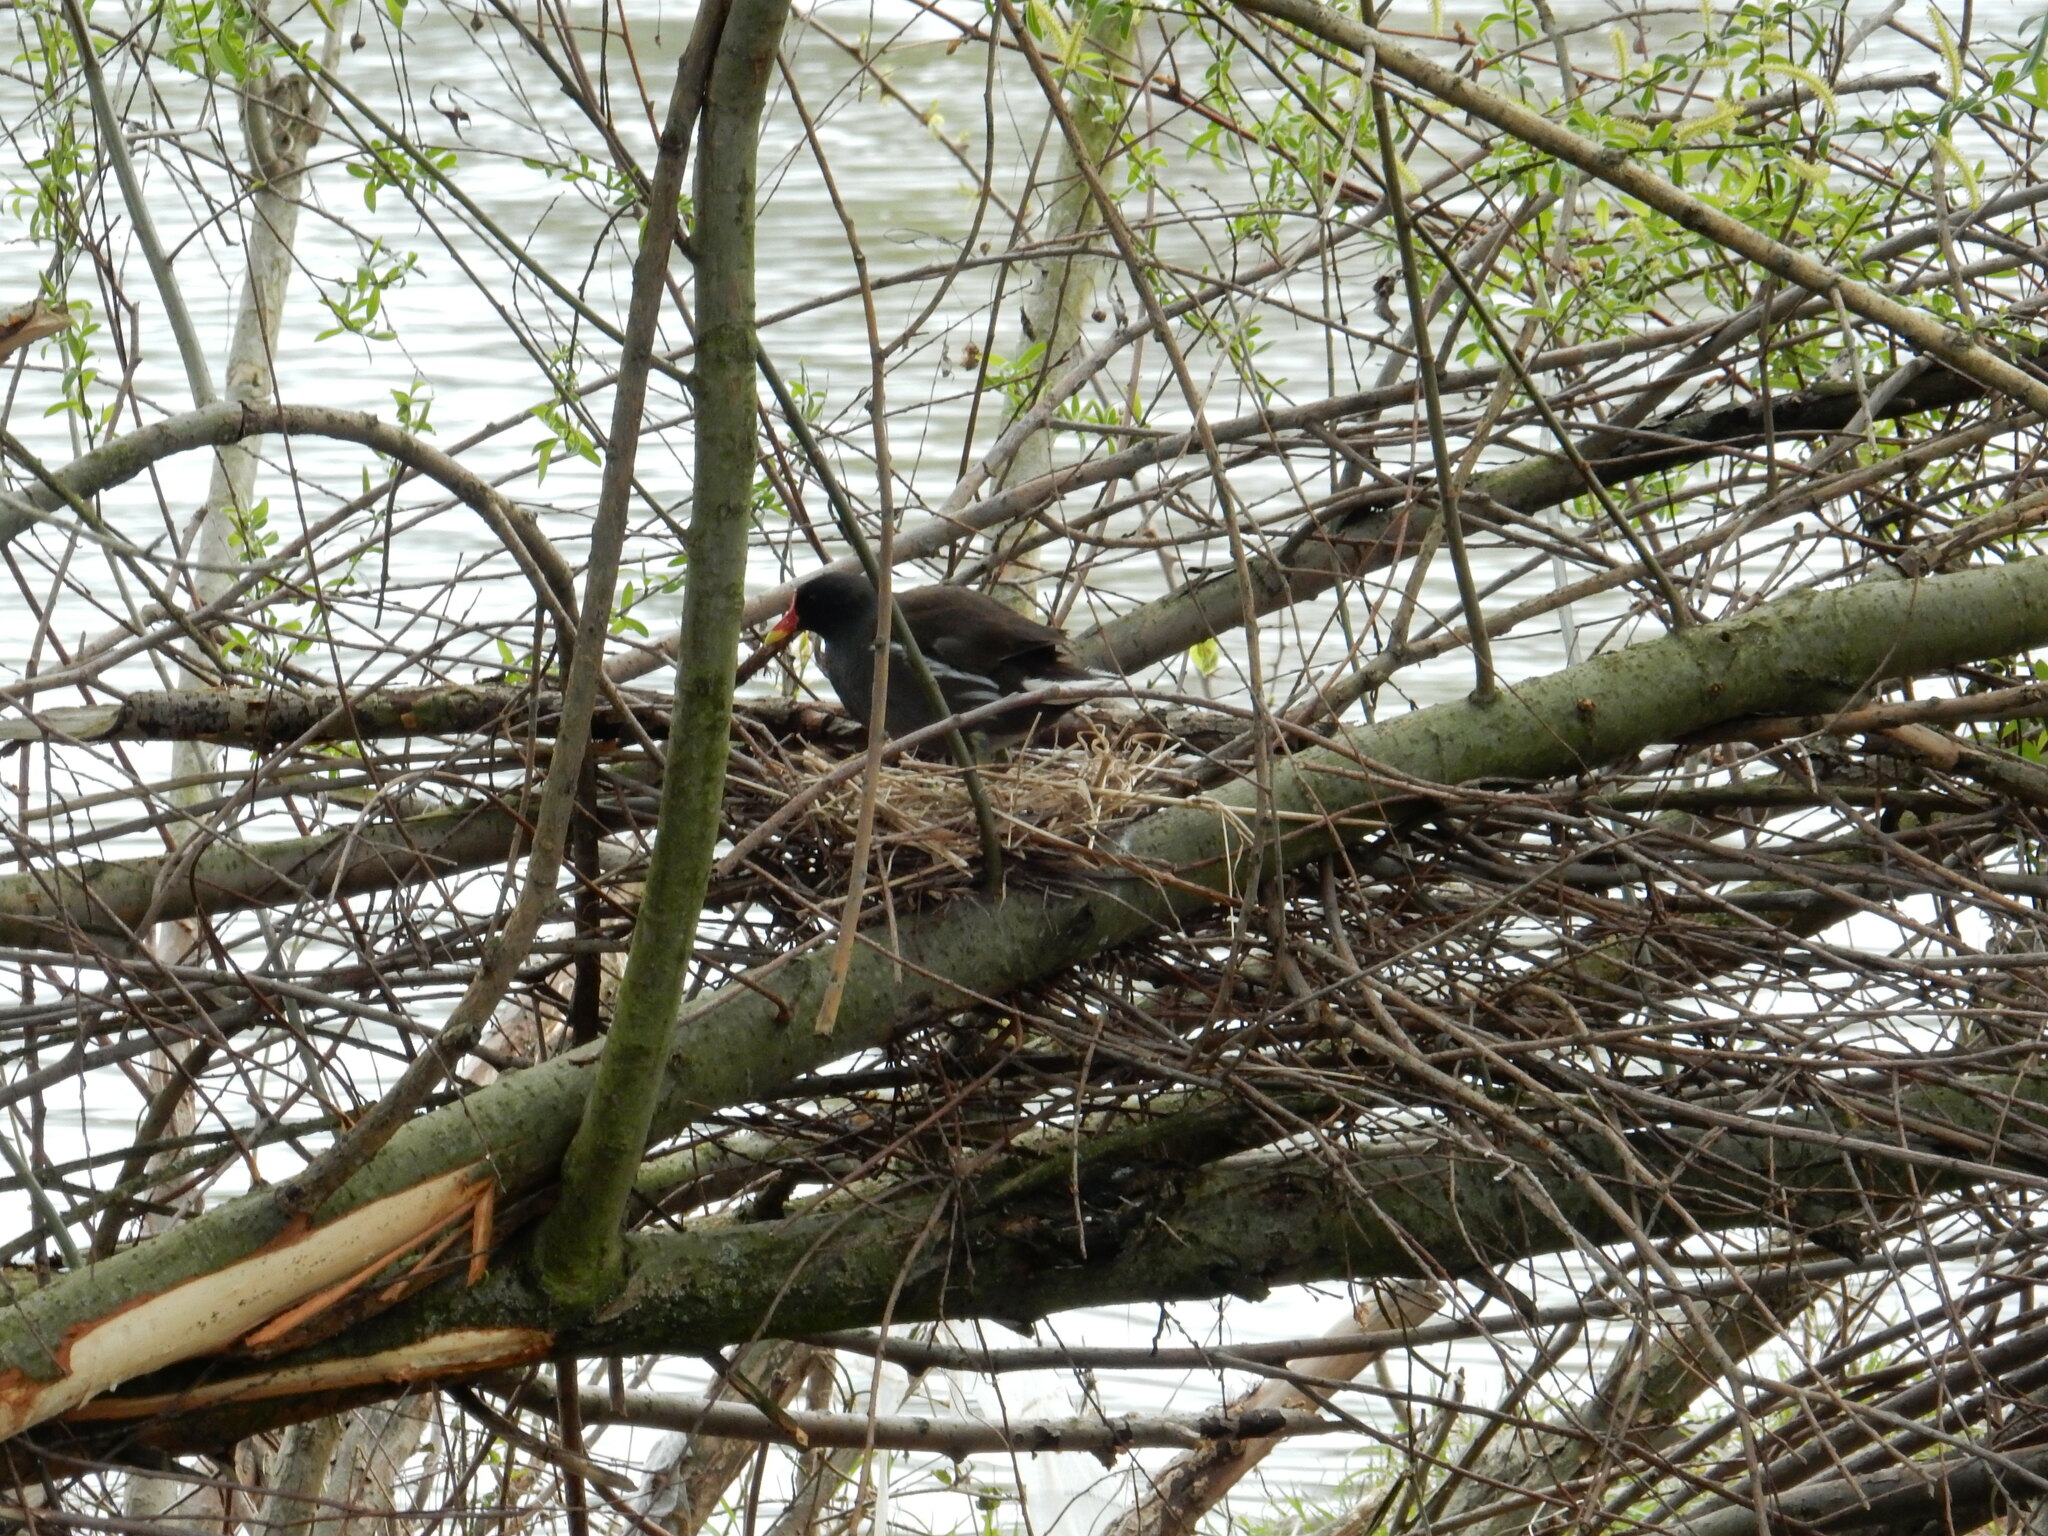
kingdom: Animalia
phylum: Chordata
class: Aves
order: Gruiformes
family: Rallidae
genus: Gallinula
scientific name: Gallinula chloropus
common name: Common moorhen
